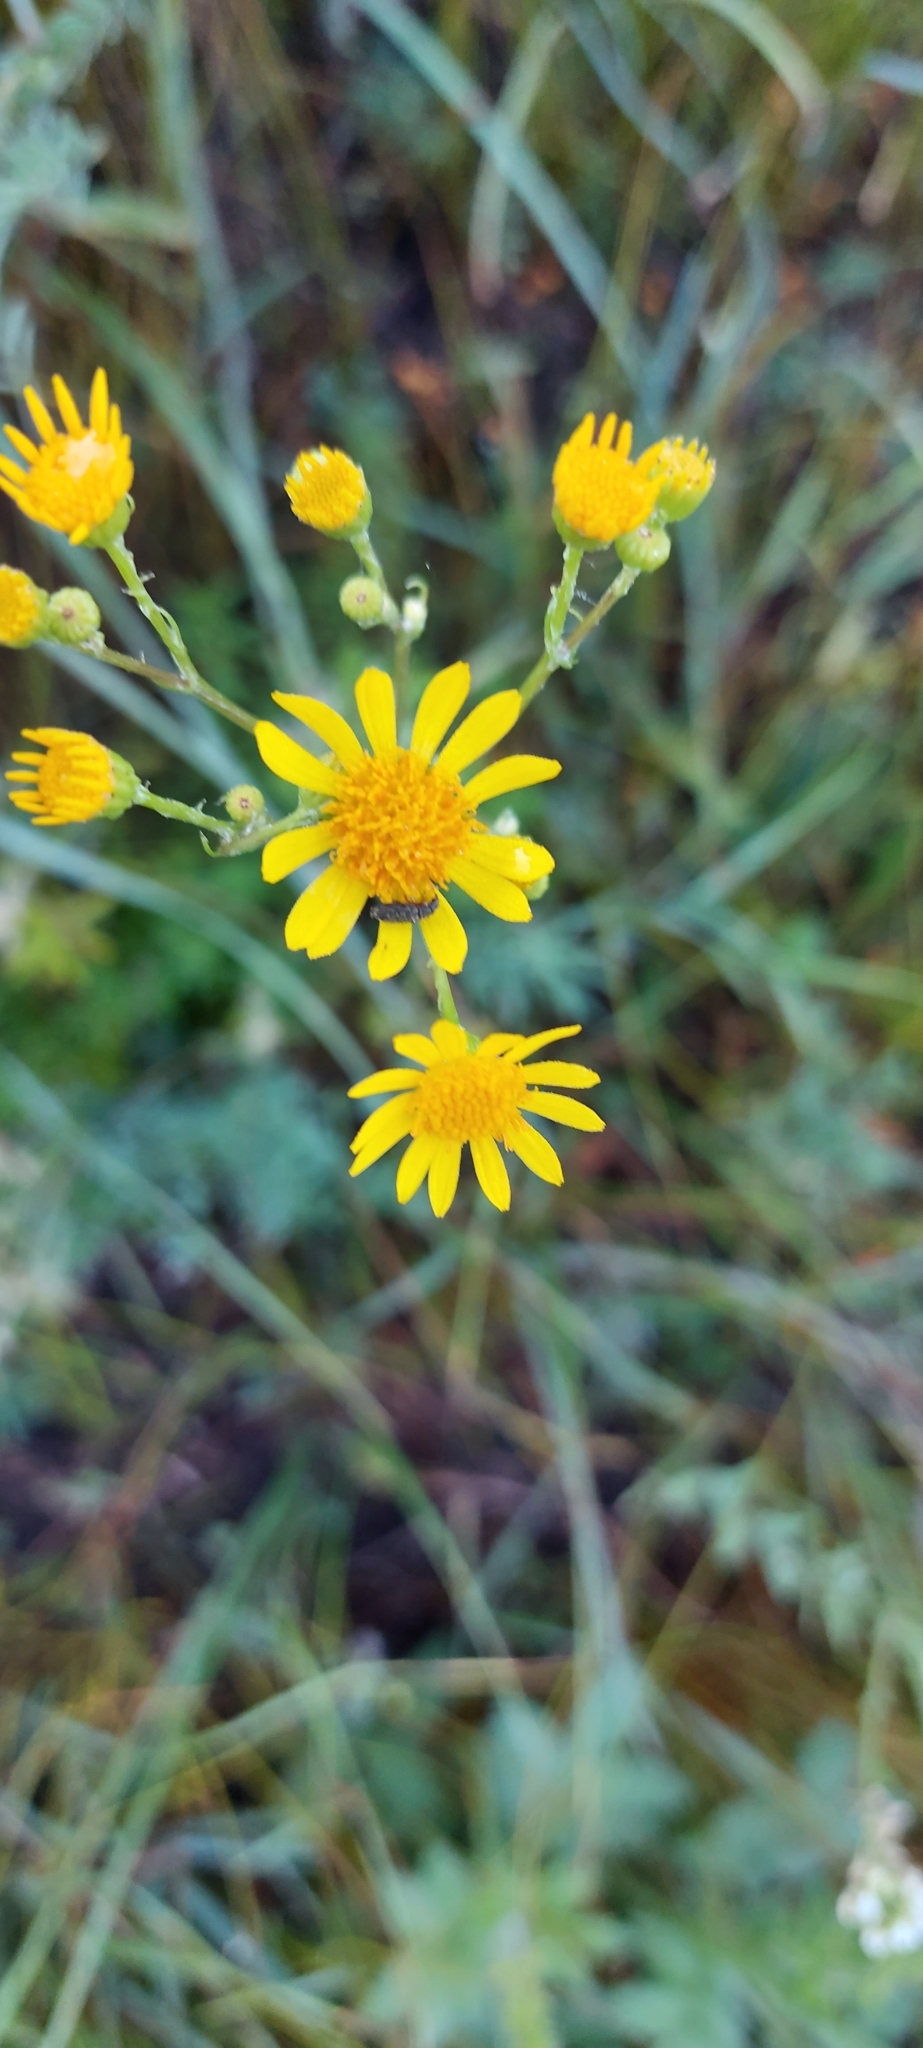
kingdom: Plantae
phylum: Tracheophyta
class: Magnoliopsida
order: Asterales
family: Asteraceae
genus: Jacobaea
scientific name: Jacobaea vulgaris
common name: Stinking willie
